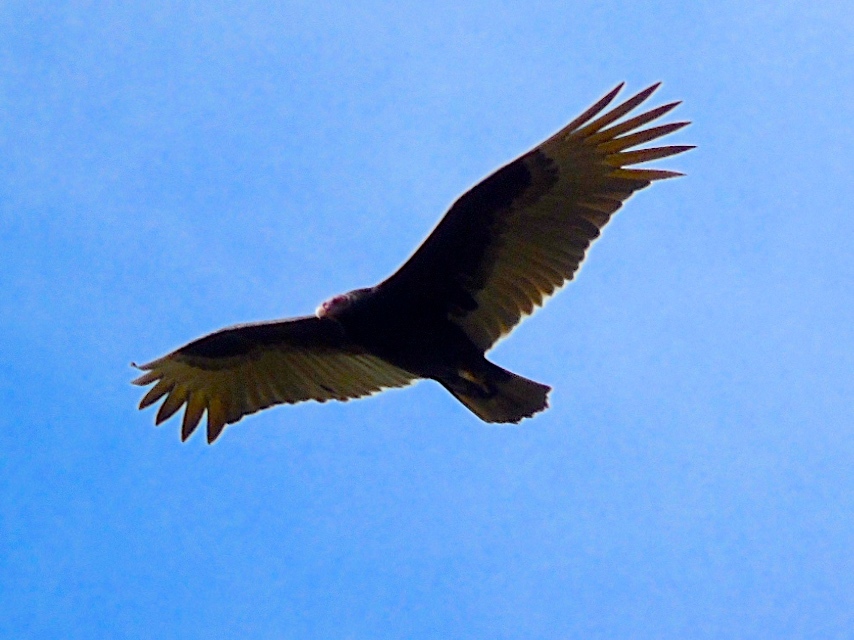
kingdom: Animalia
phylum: Chordata
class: Aves
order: Accipitriformes
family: Cathartidae
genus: Cathartes
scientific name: Cathartes aura
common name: Turkey vulture
